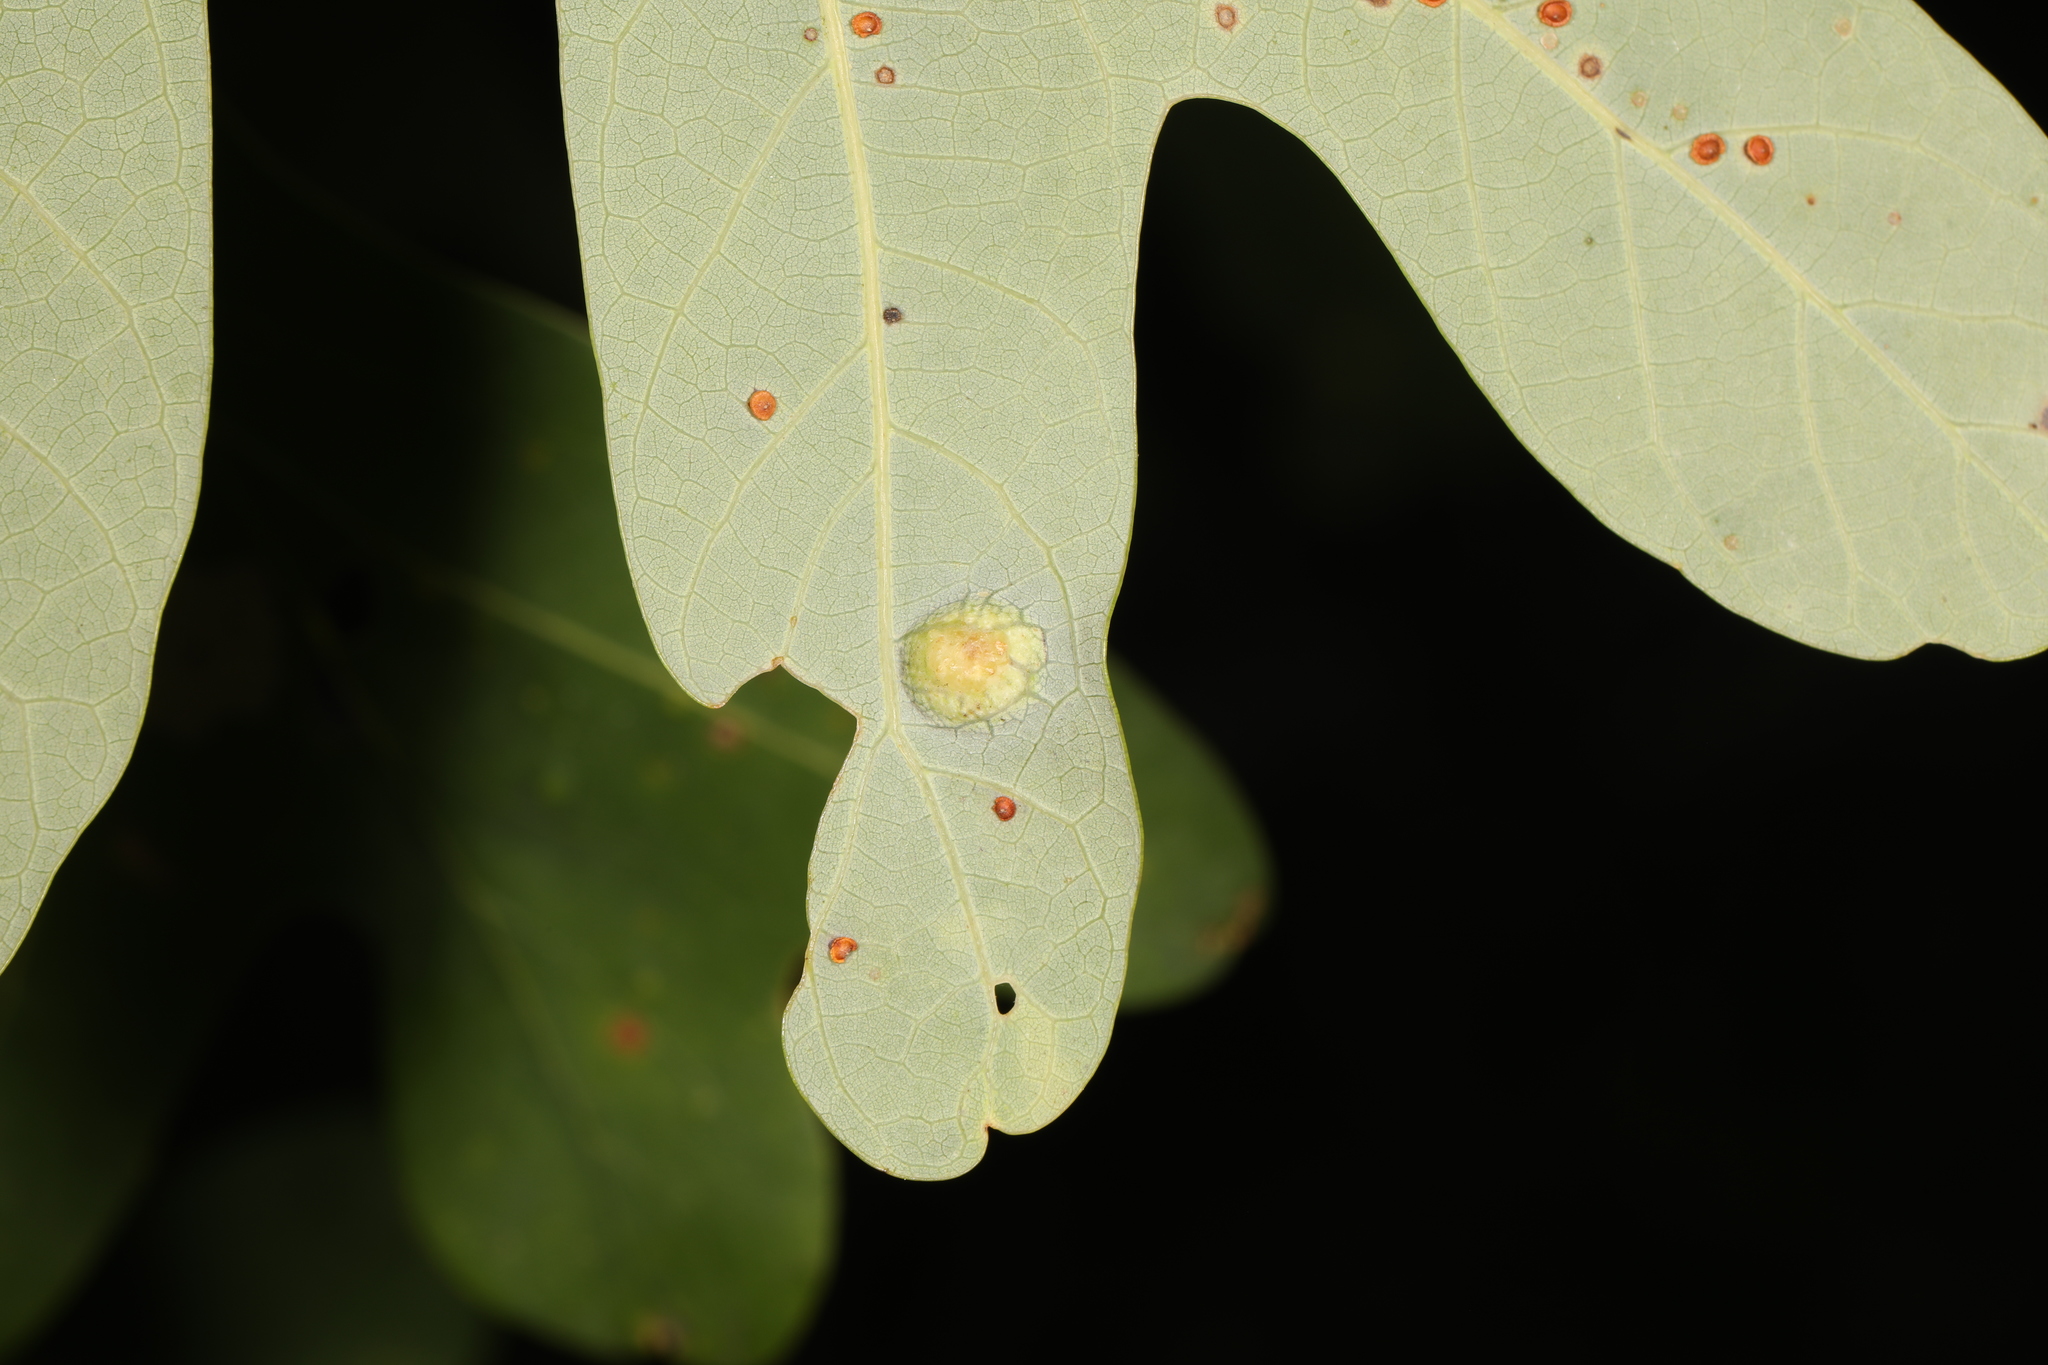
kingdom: Animalia
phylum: Arthropoda
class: Insecta
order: Hymenoptera
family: Cynipidae
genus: Callirhytis
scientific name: Callirhytis
